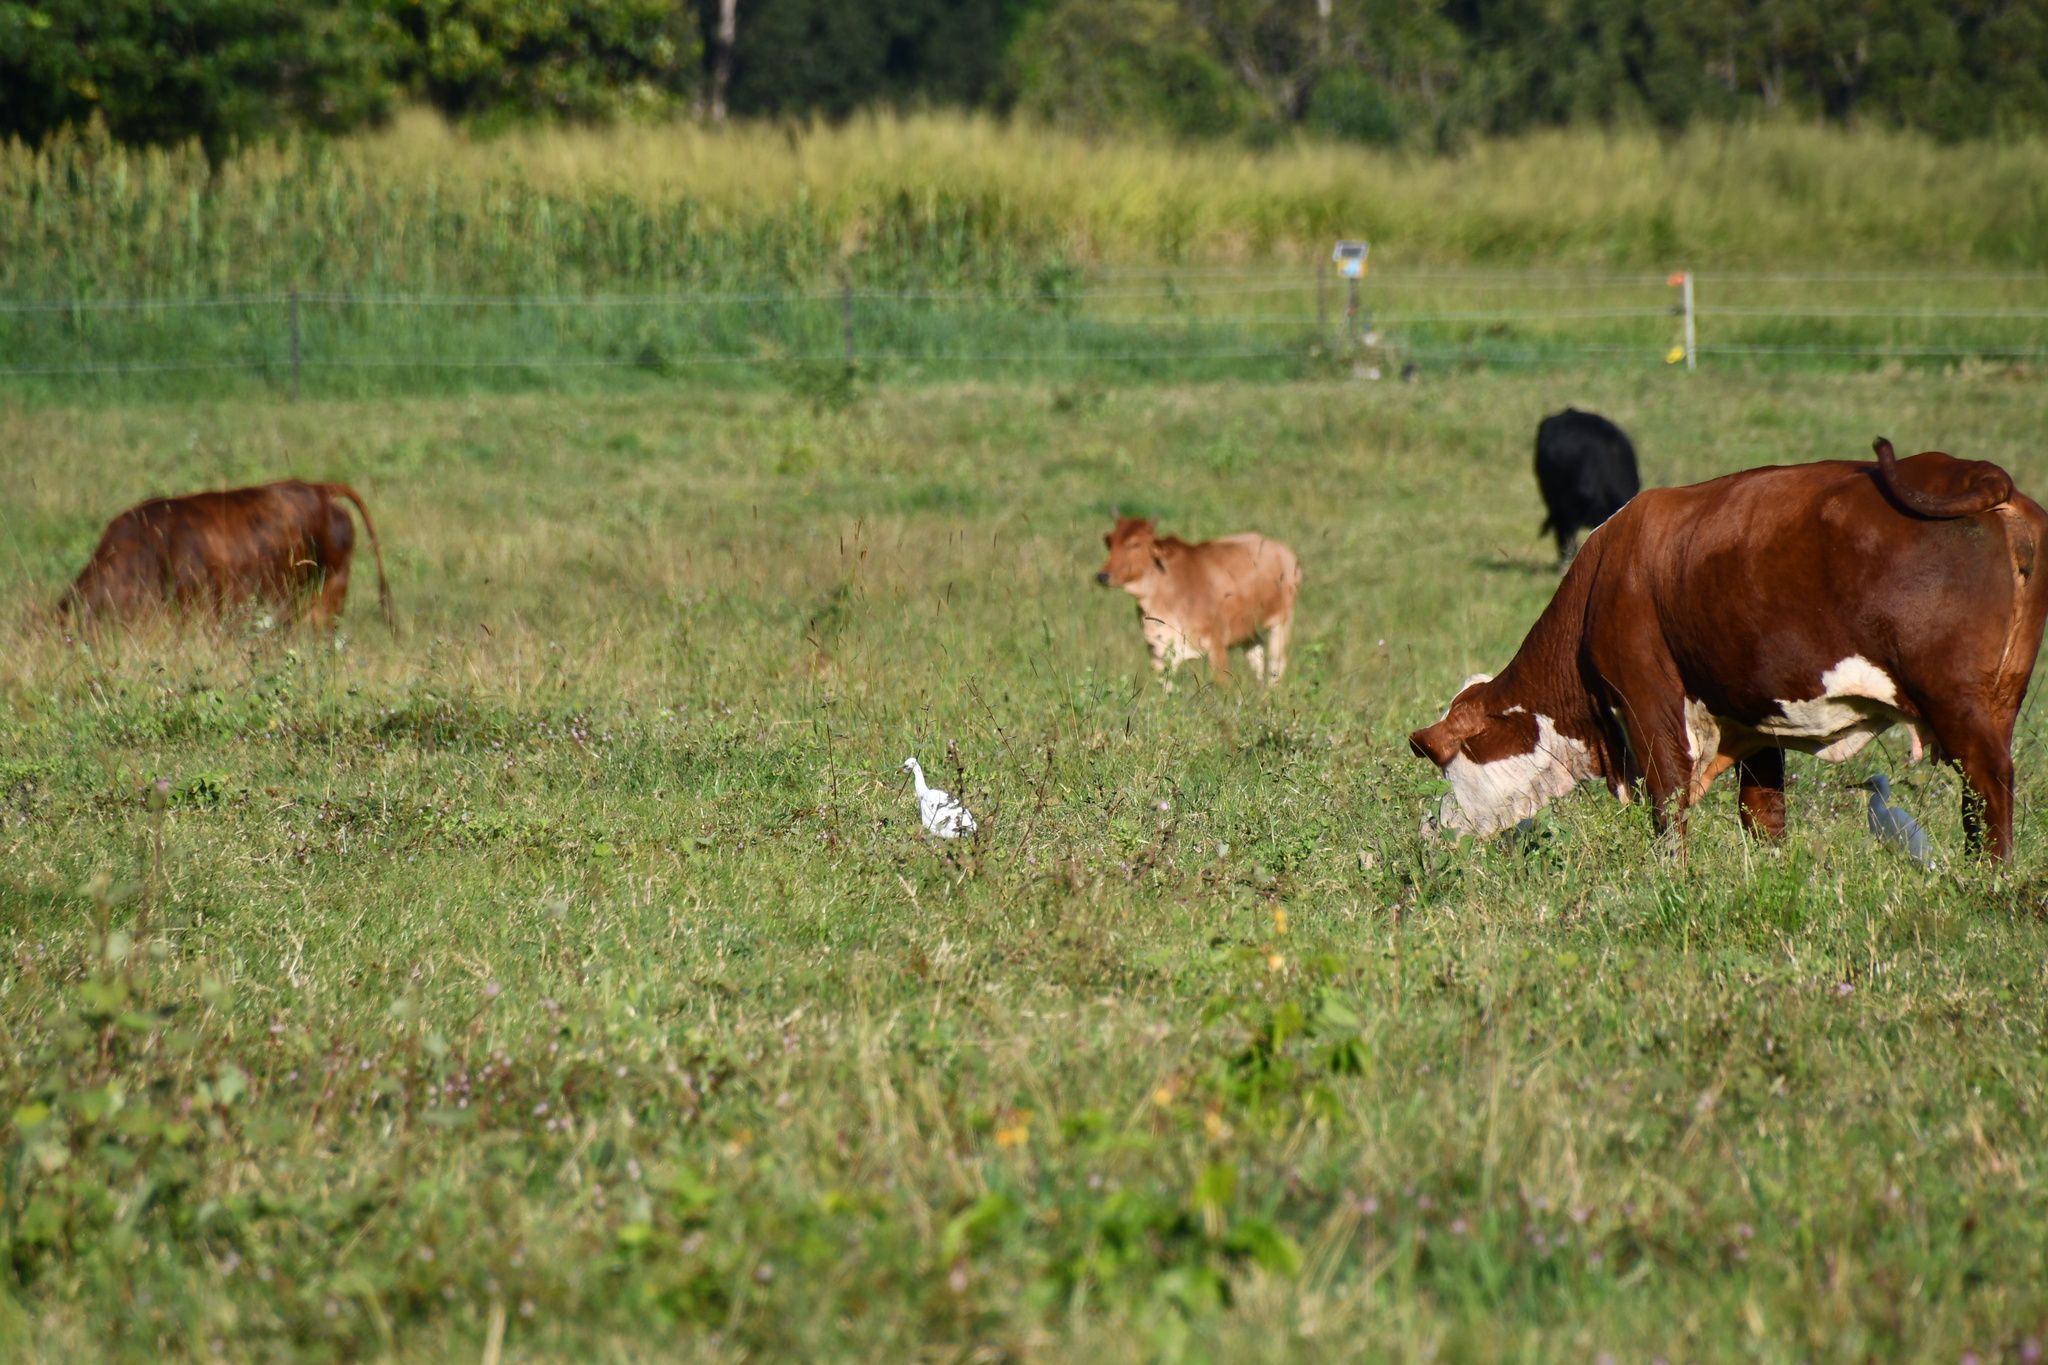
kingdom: Animalia
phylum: Chordata
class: Aves
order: Pelecaniformes
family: Ardeidae
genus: Bubulcus
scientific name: Bubulcus coromandus
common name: Eastern cattle egret
